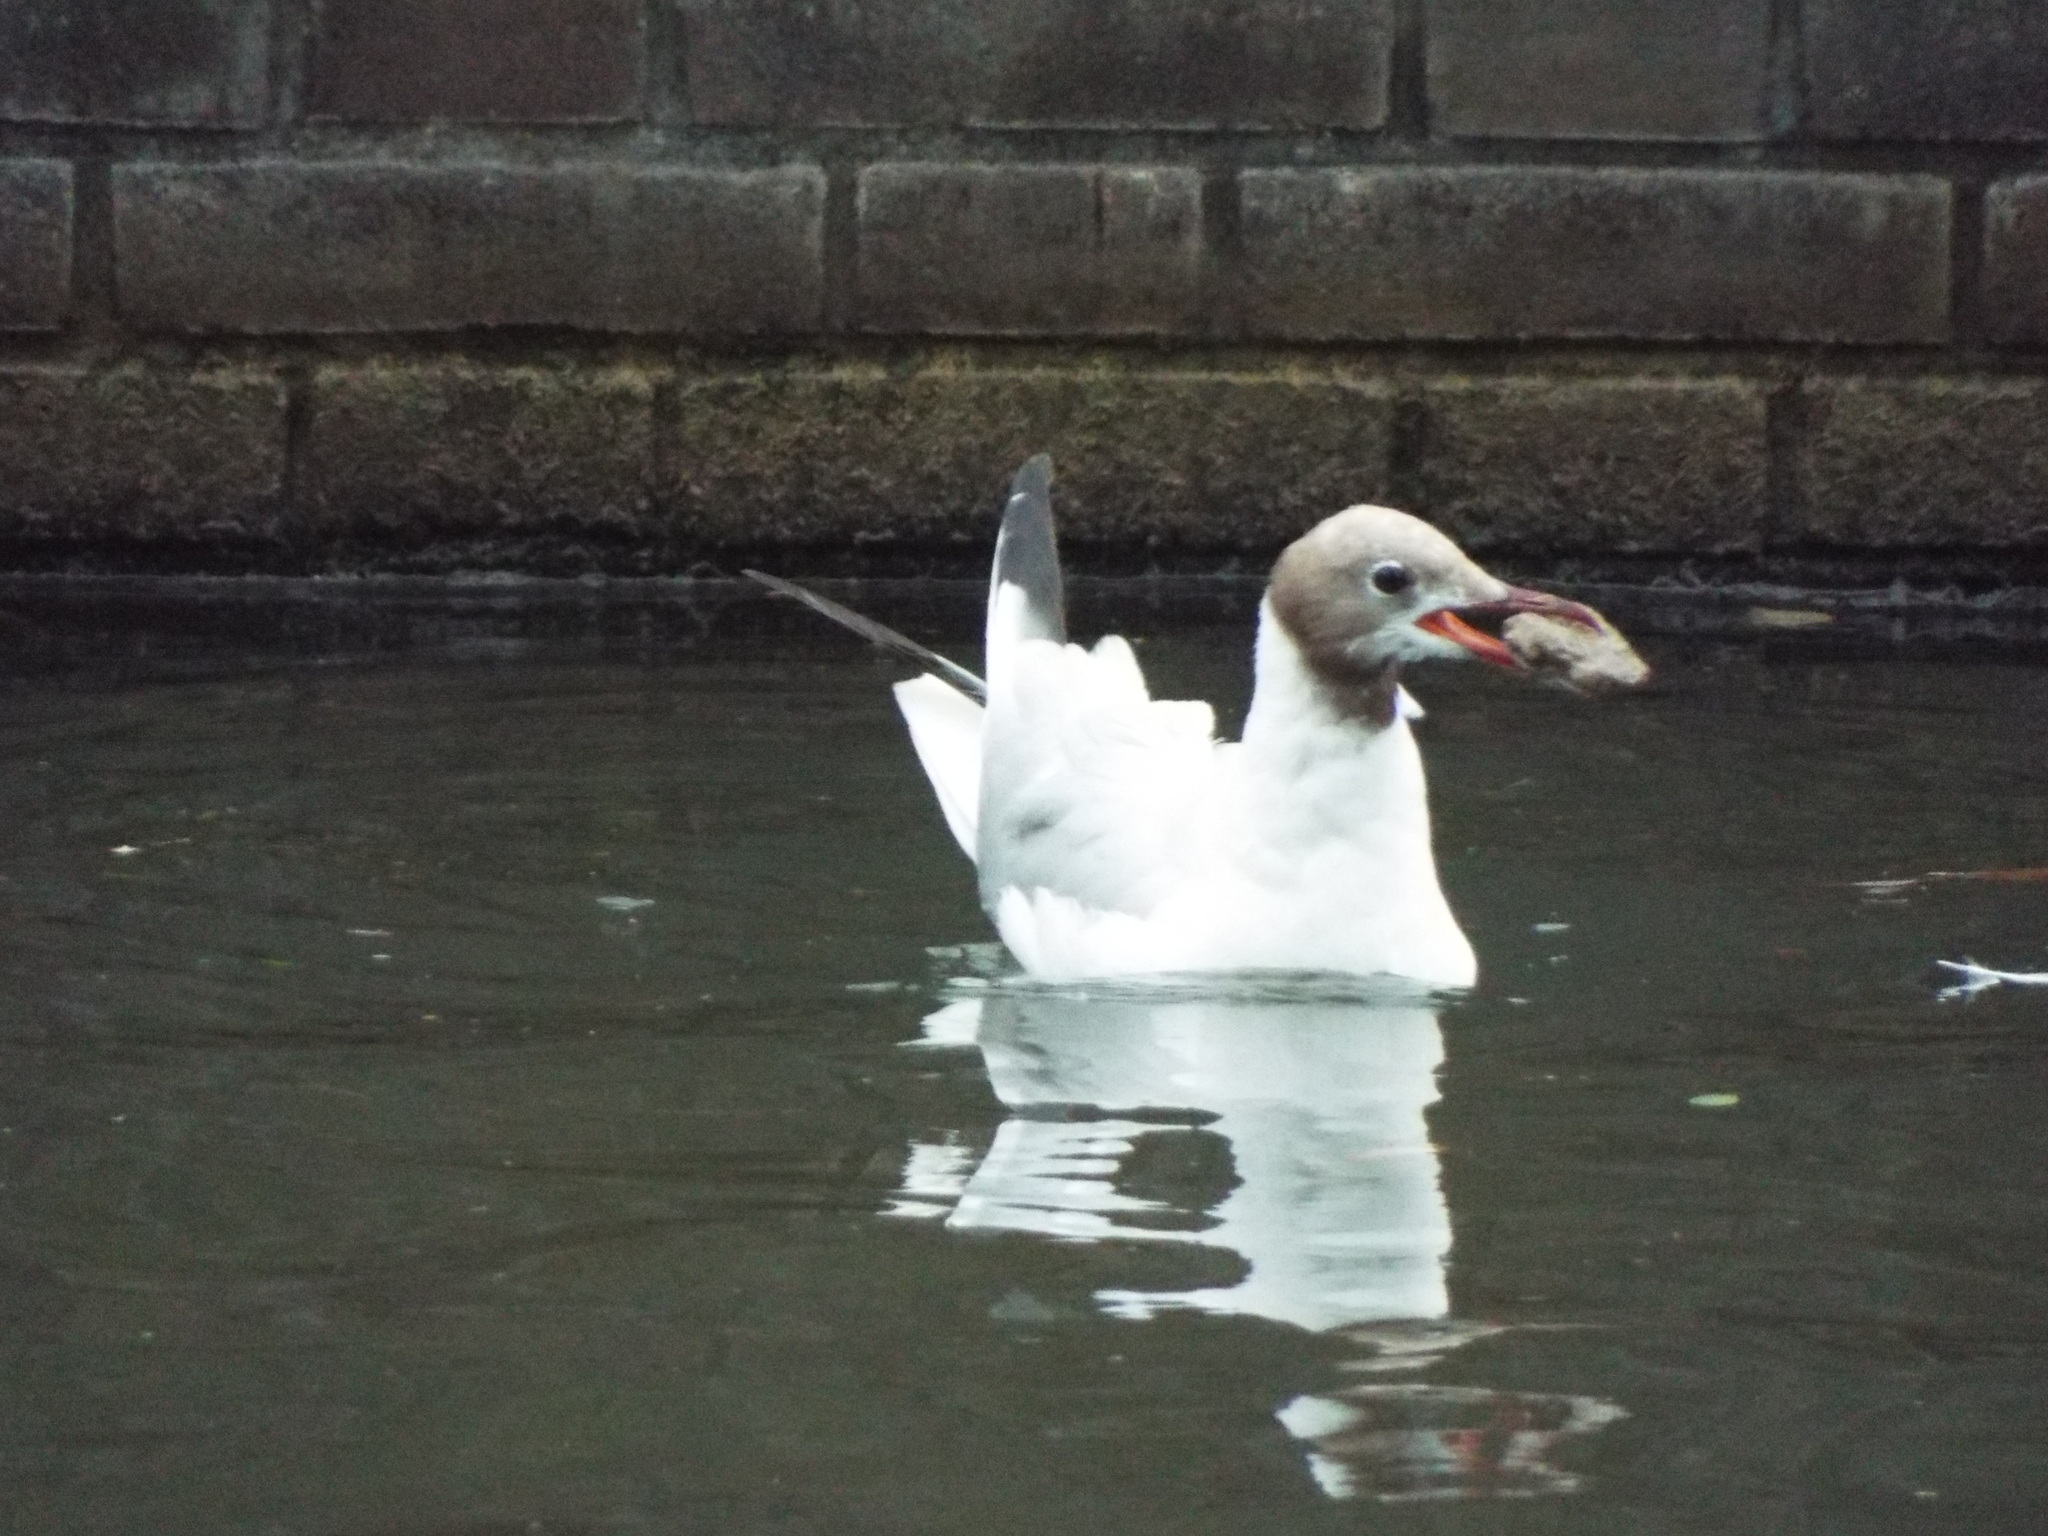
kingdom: Animalia
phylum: Chordata
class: Aves
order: Charadriiformes
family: Laridae
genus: Chroicocephalus
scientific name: Chroicocephalus ridibundus
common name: Black-headed gull
